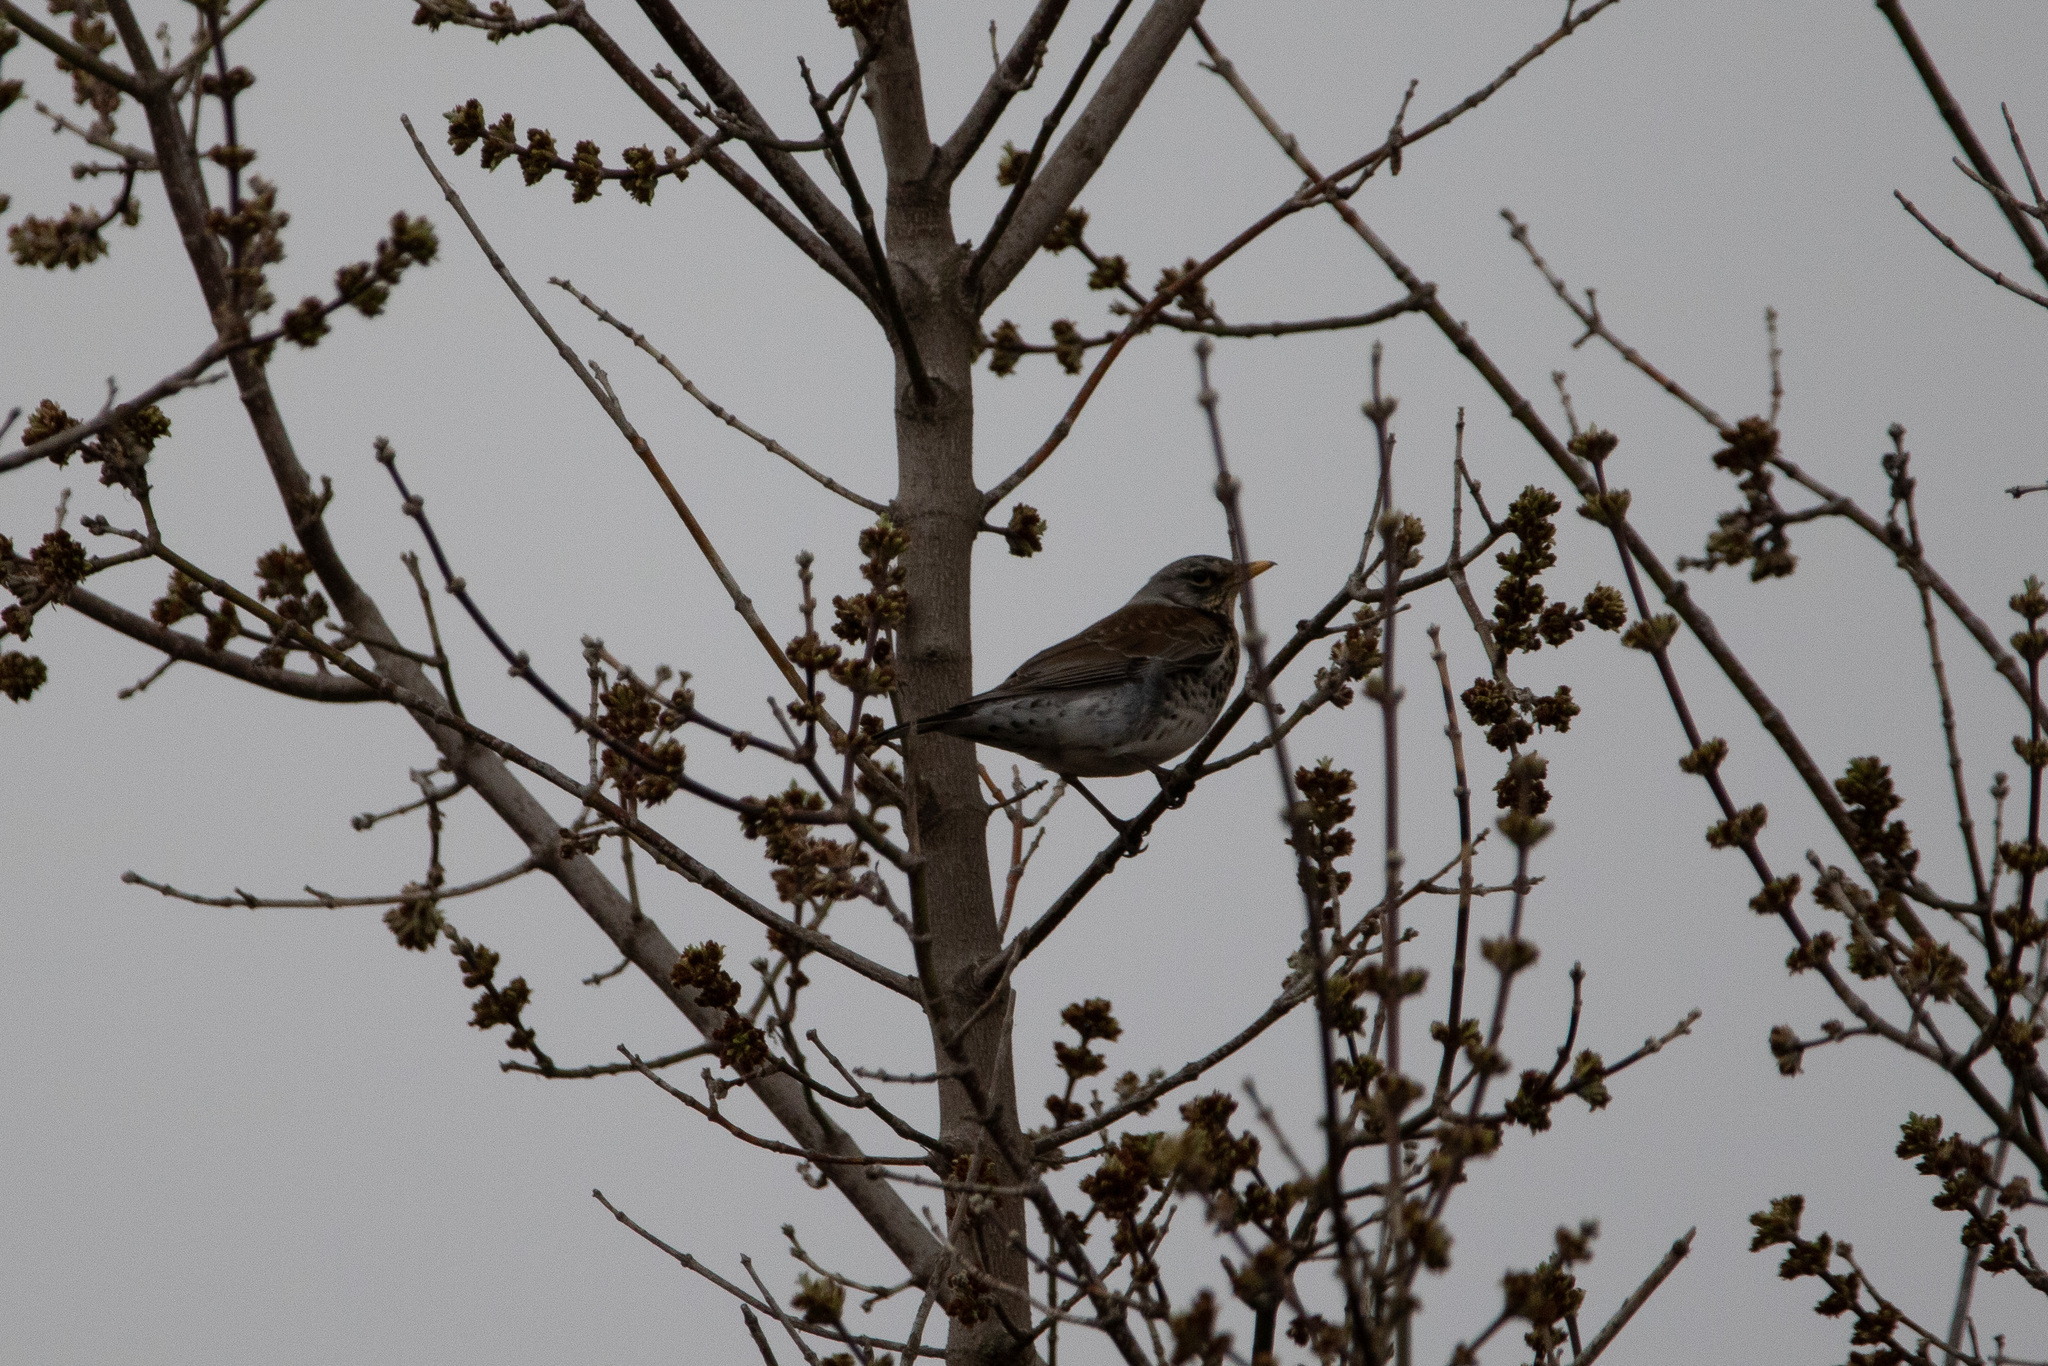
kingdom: Animalia
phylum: Chordata
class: Aves
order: Passeriformes
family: Turdidae
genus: Turdus
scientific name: Turdus pilaris
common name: Fieldfare
